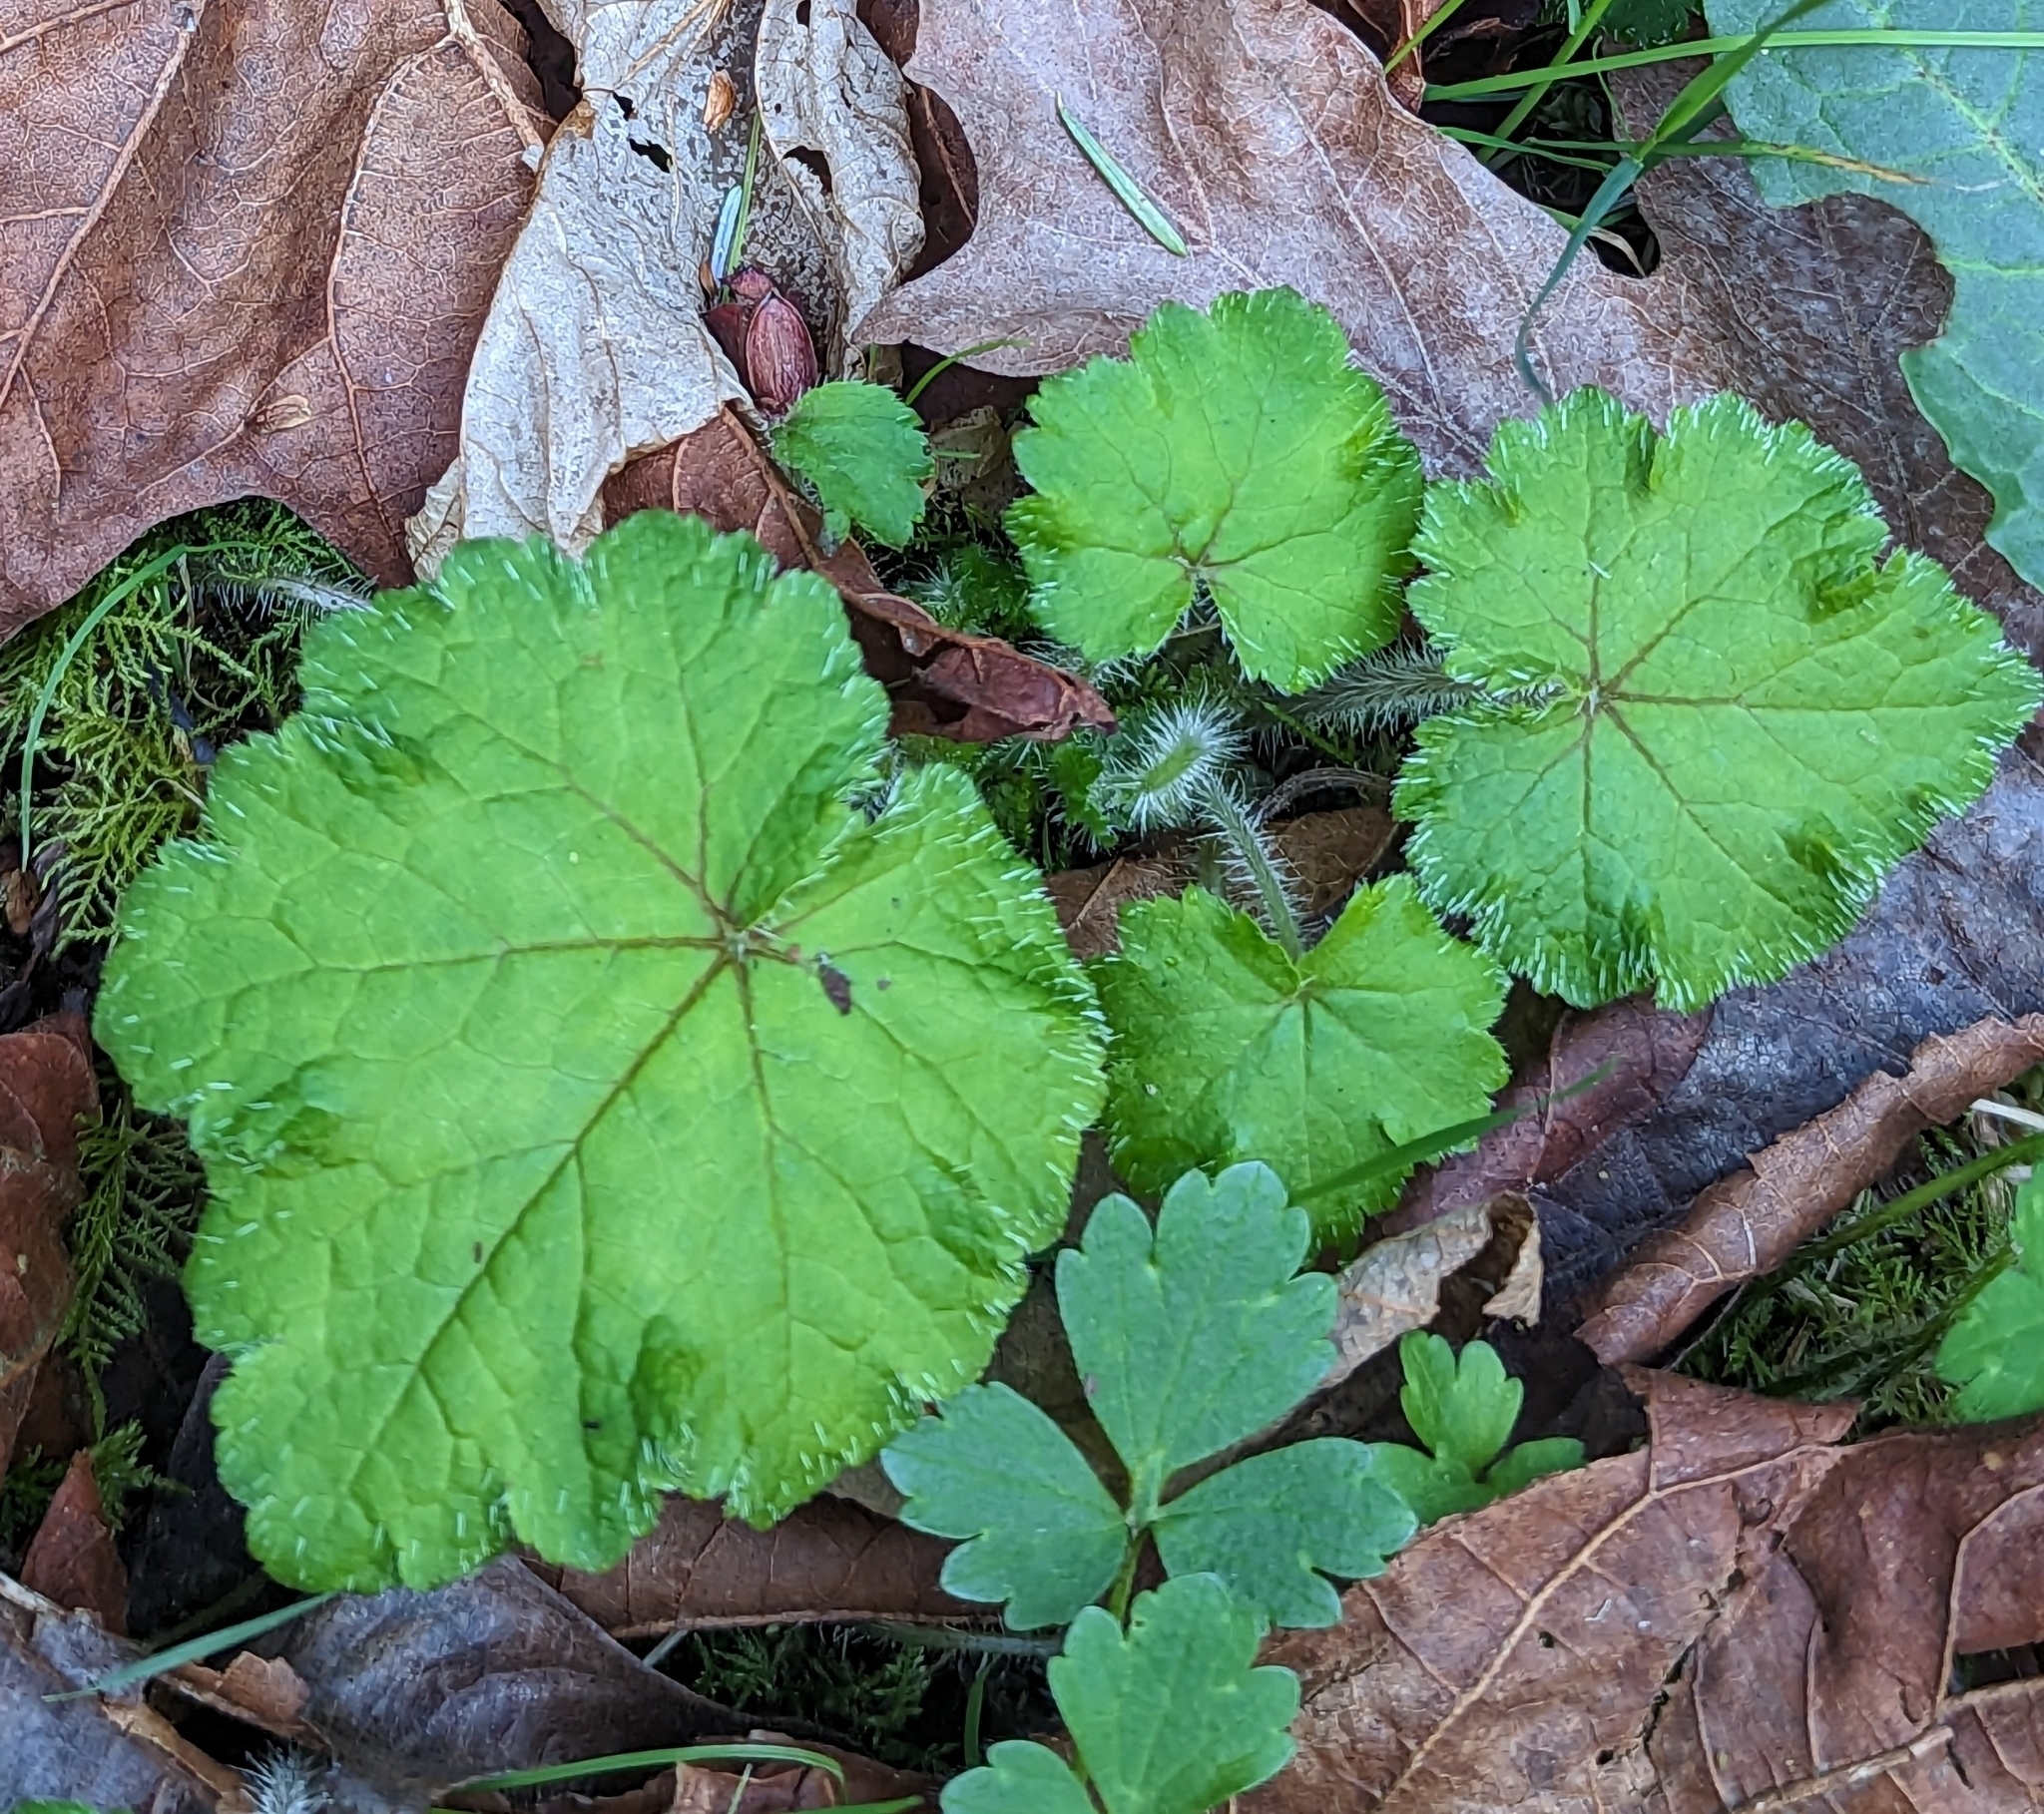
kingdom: Plantae
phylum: Tracheophyta
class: Magnoliopsida
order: Saxifragales
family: Saxifragaceae
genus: Tellima
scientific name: Tellima grandiflora
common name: Fringecups
